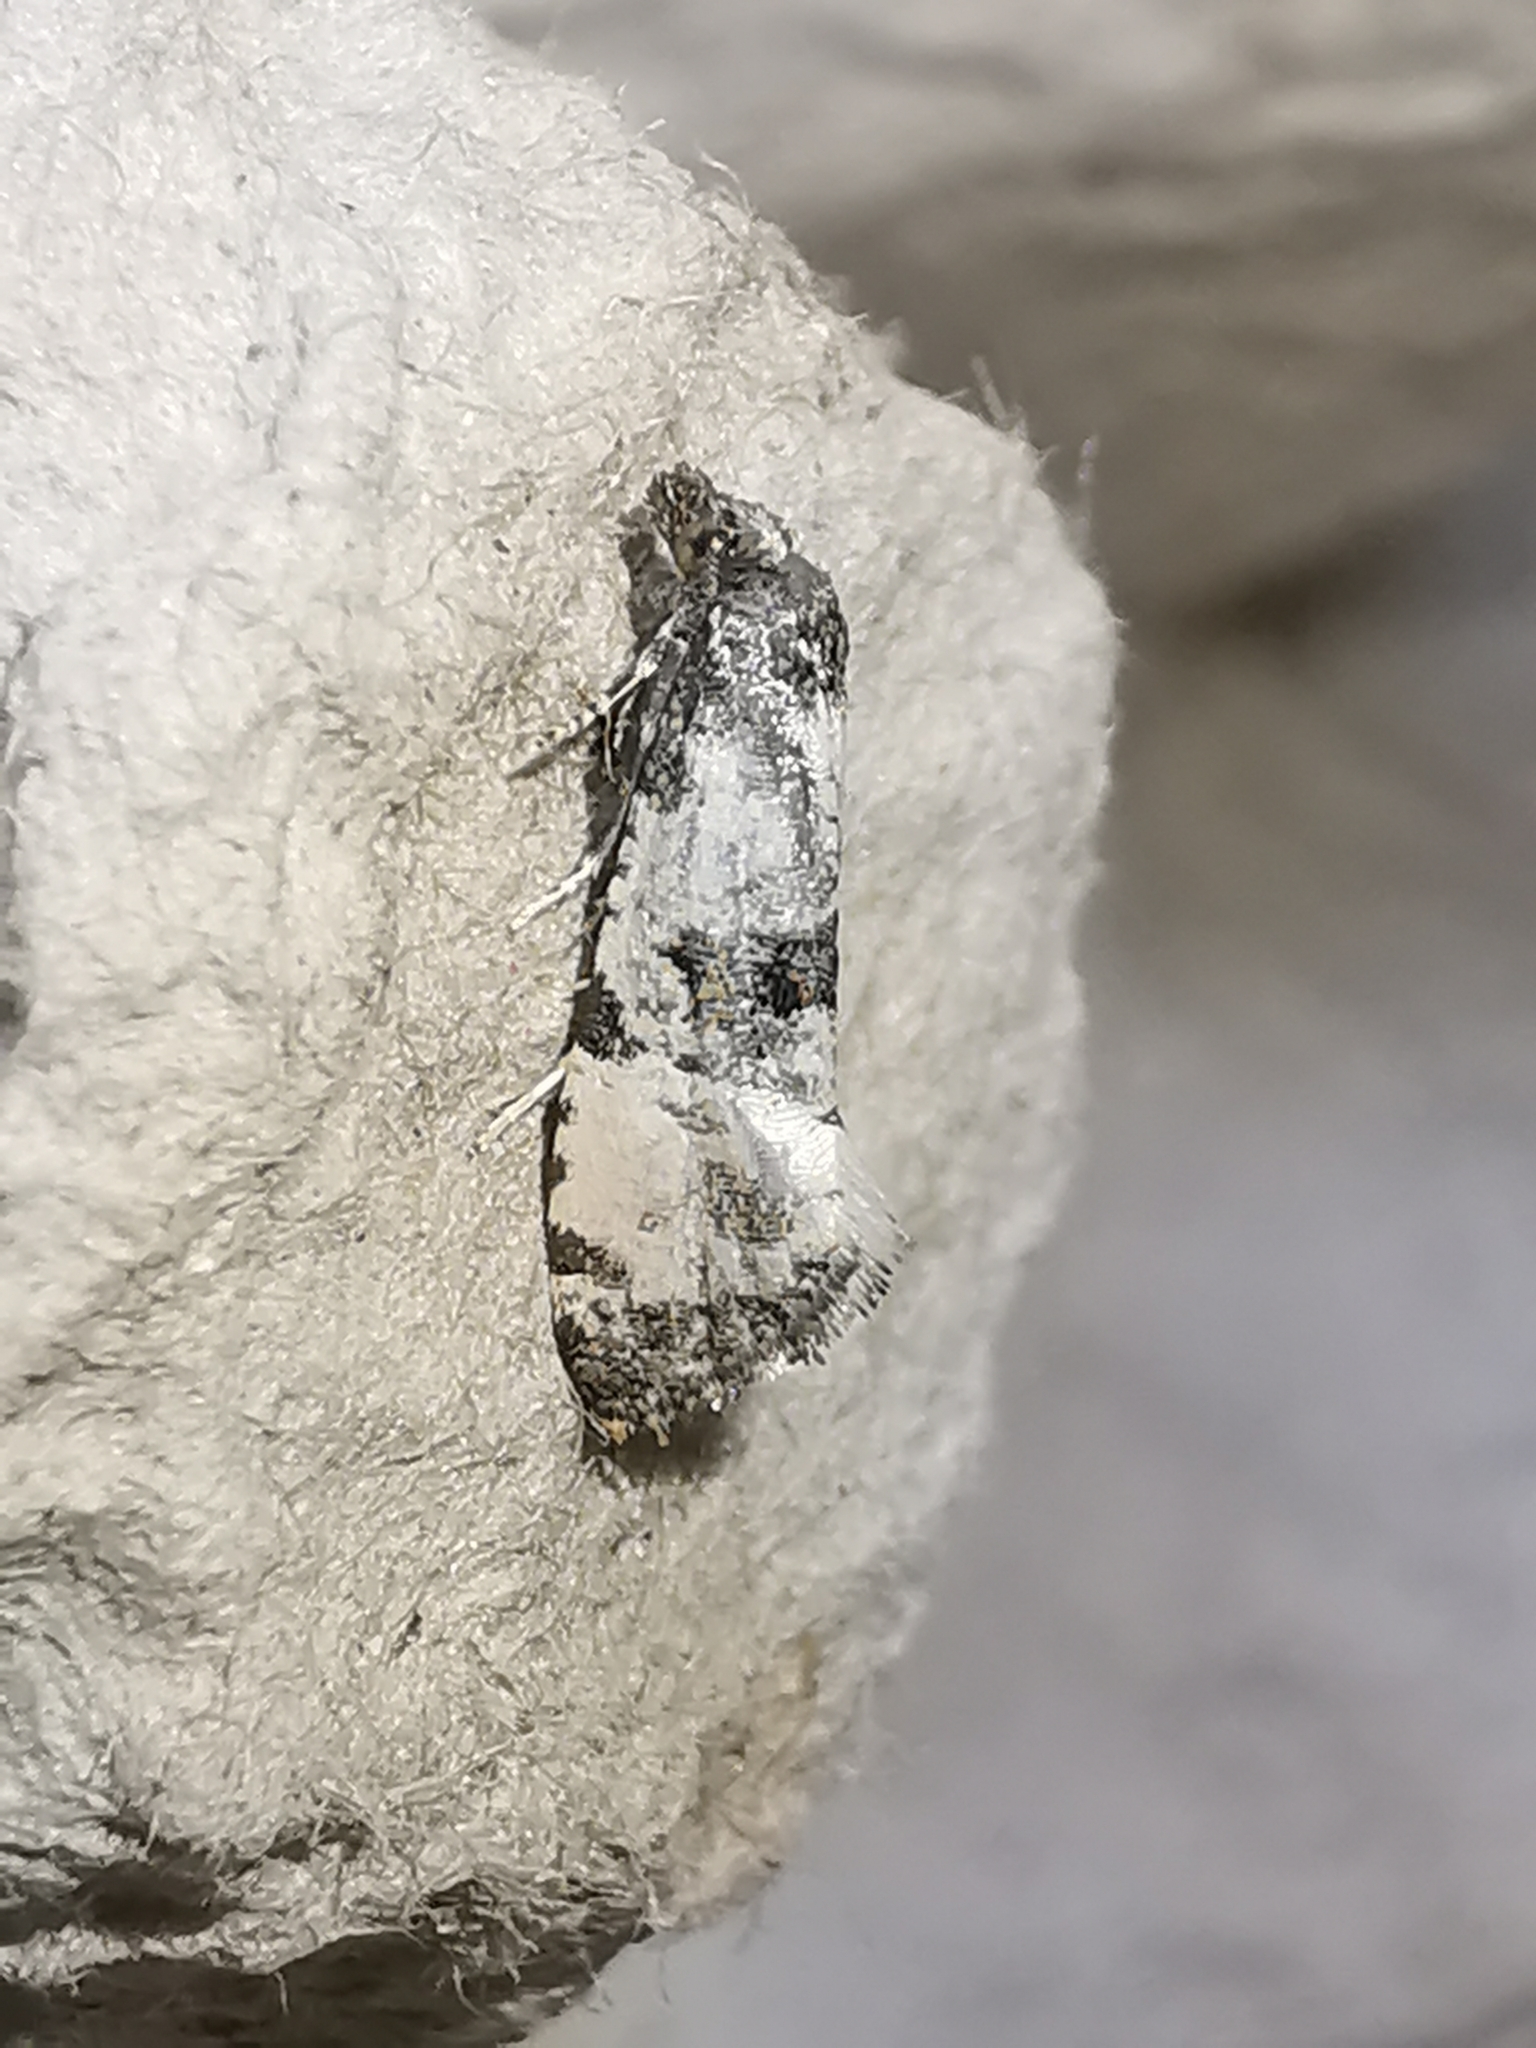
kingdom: Animalia
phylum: Arthropoda
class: Insecta
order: Lepidoptera
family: Tortricidae
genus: Cochylis
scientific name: Cochylis atricapitana
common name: Tortricid moth
